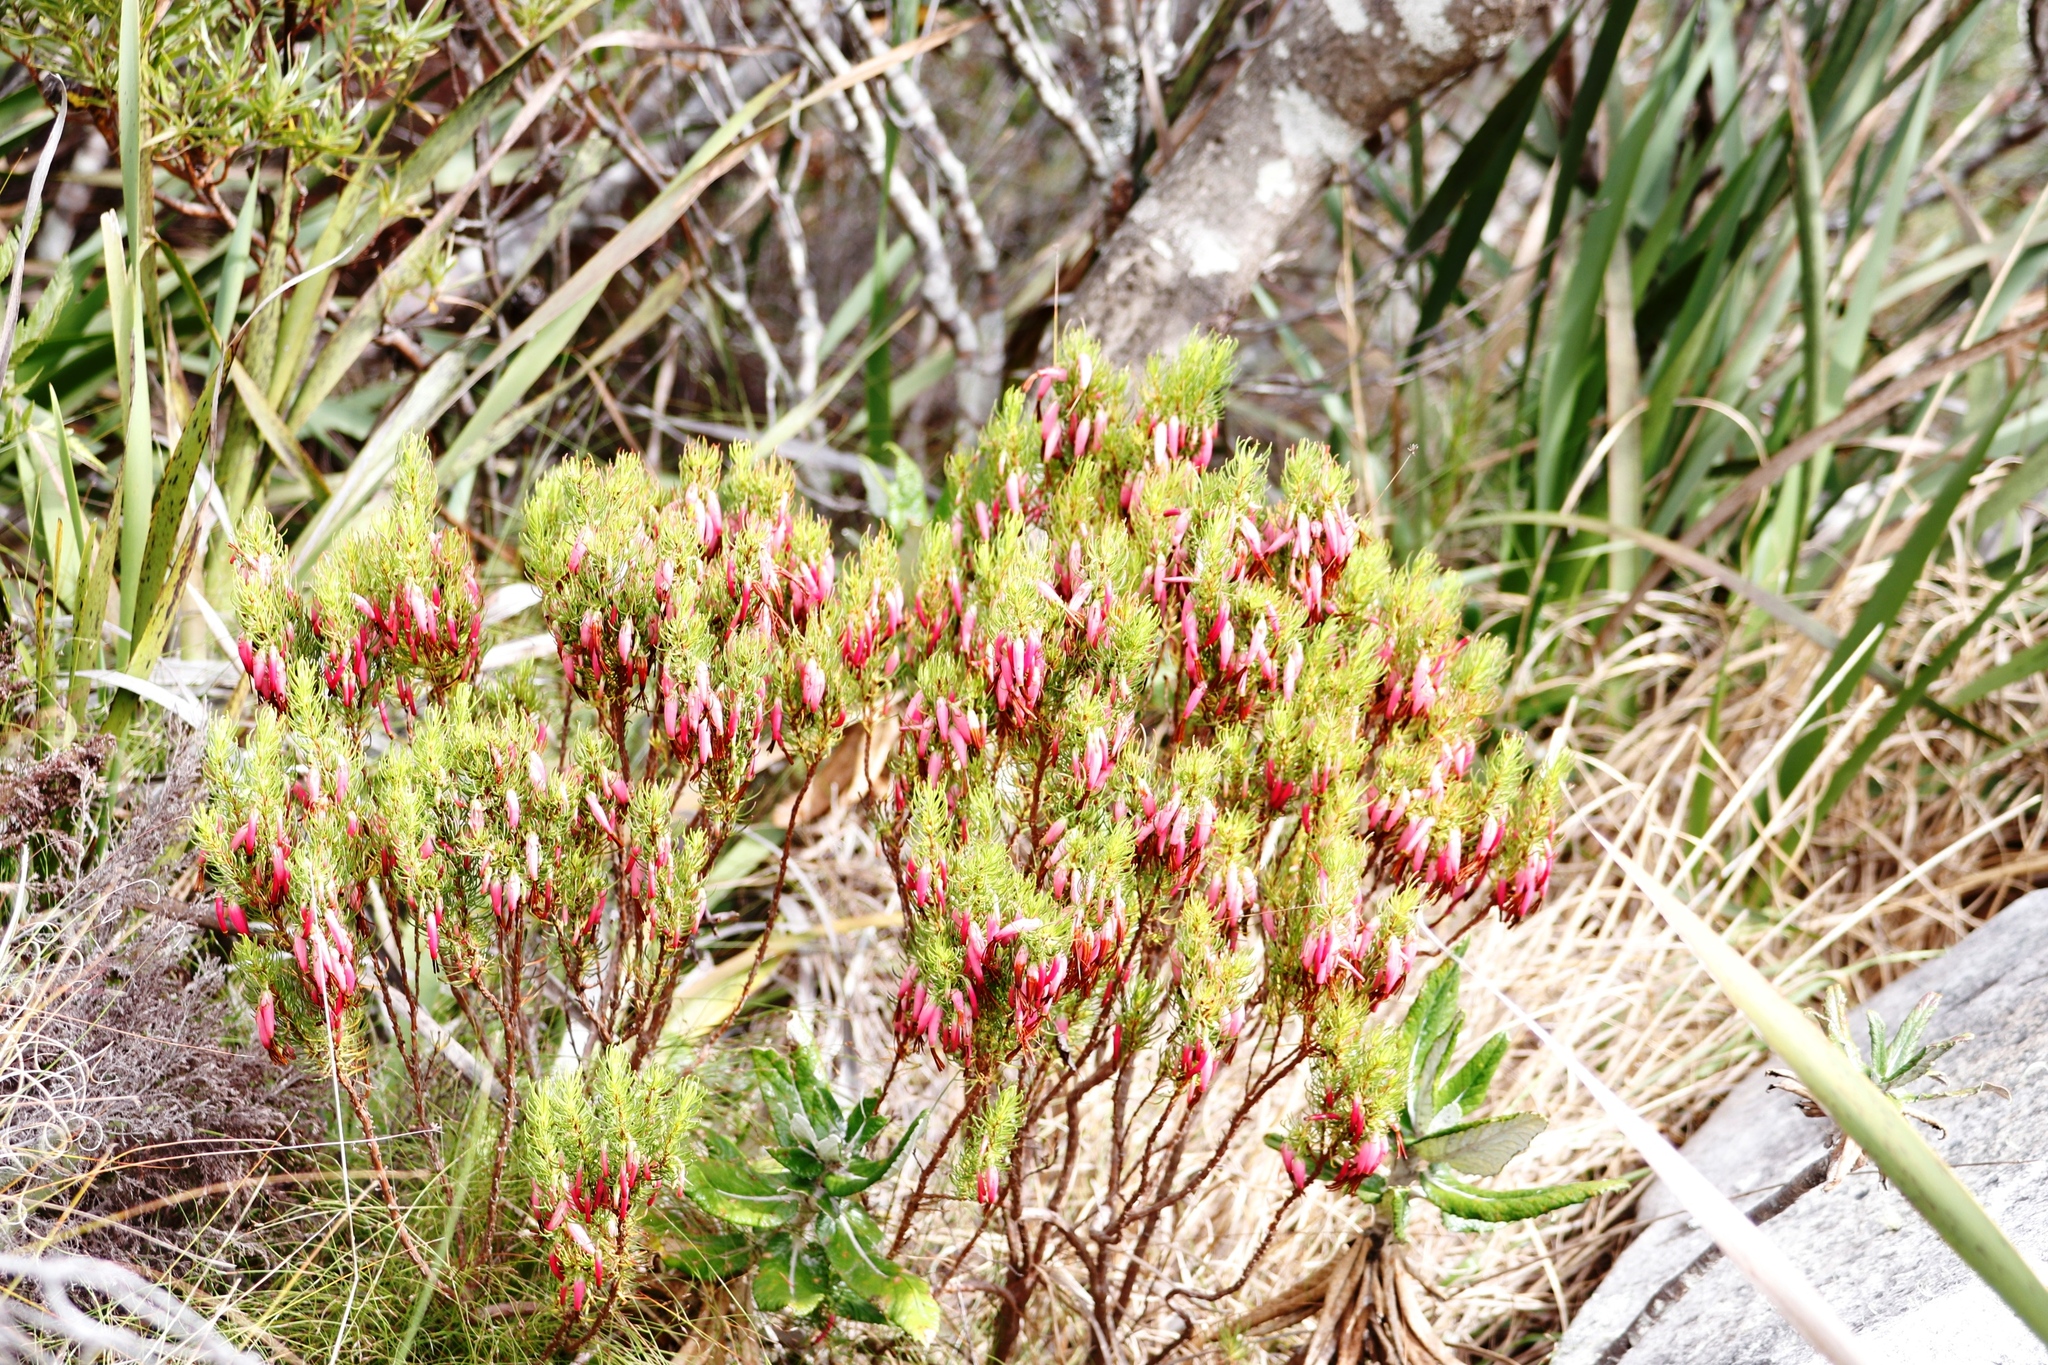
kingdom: Plantae
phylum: Tracheophyta
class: Magnoliopsida
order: Ericales
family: Ericaceae
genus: Erica
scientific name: Erica plukenetii
